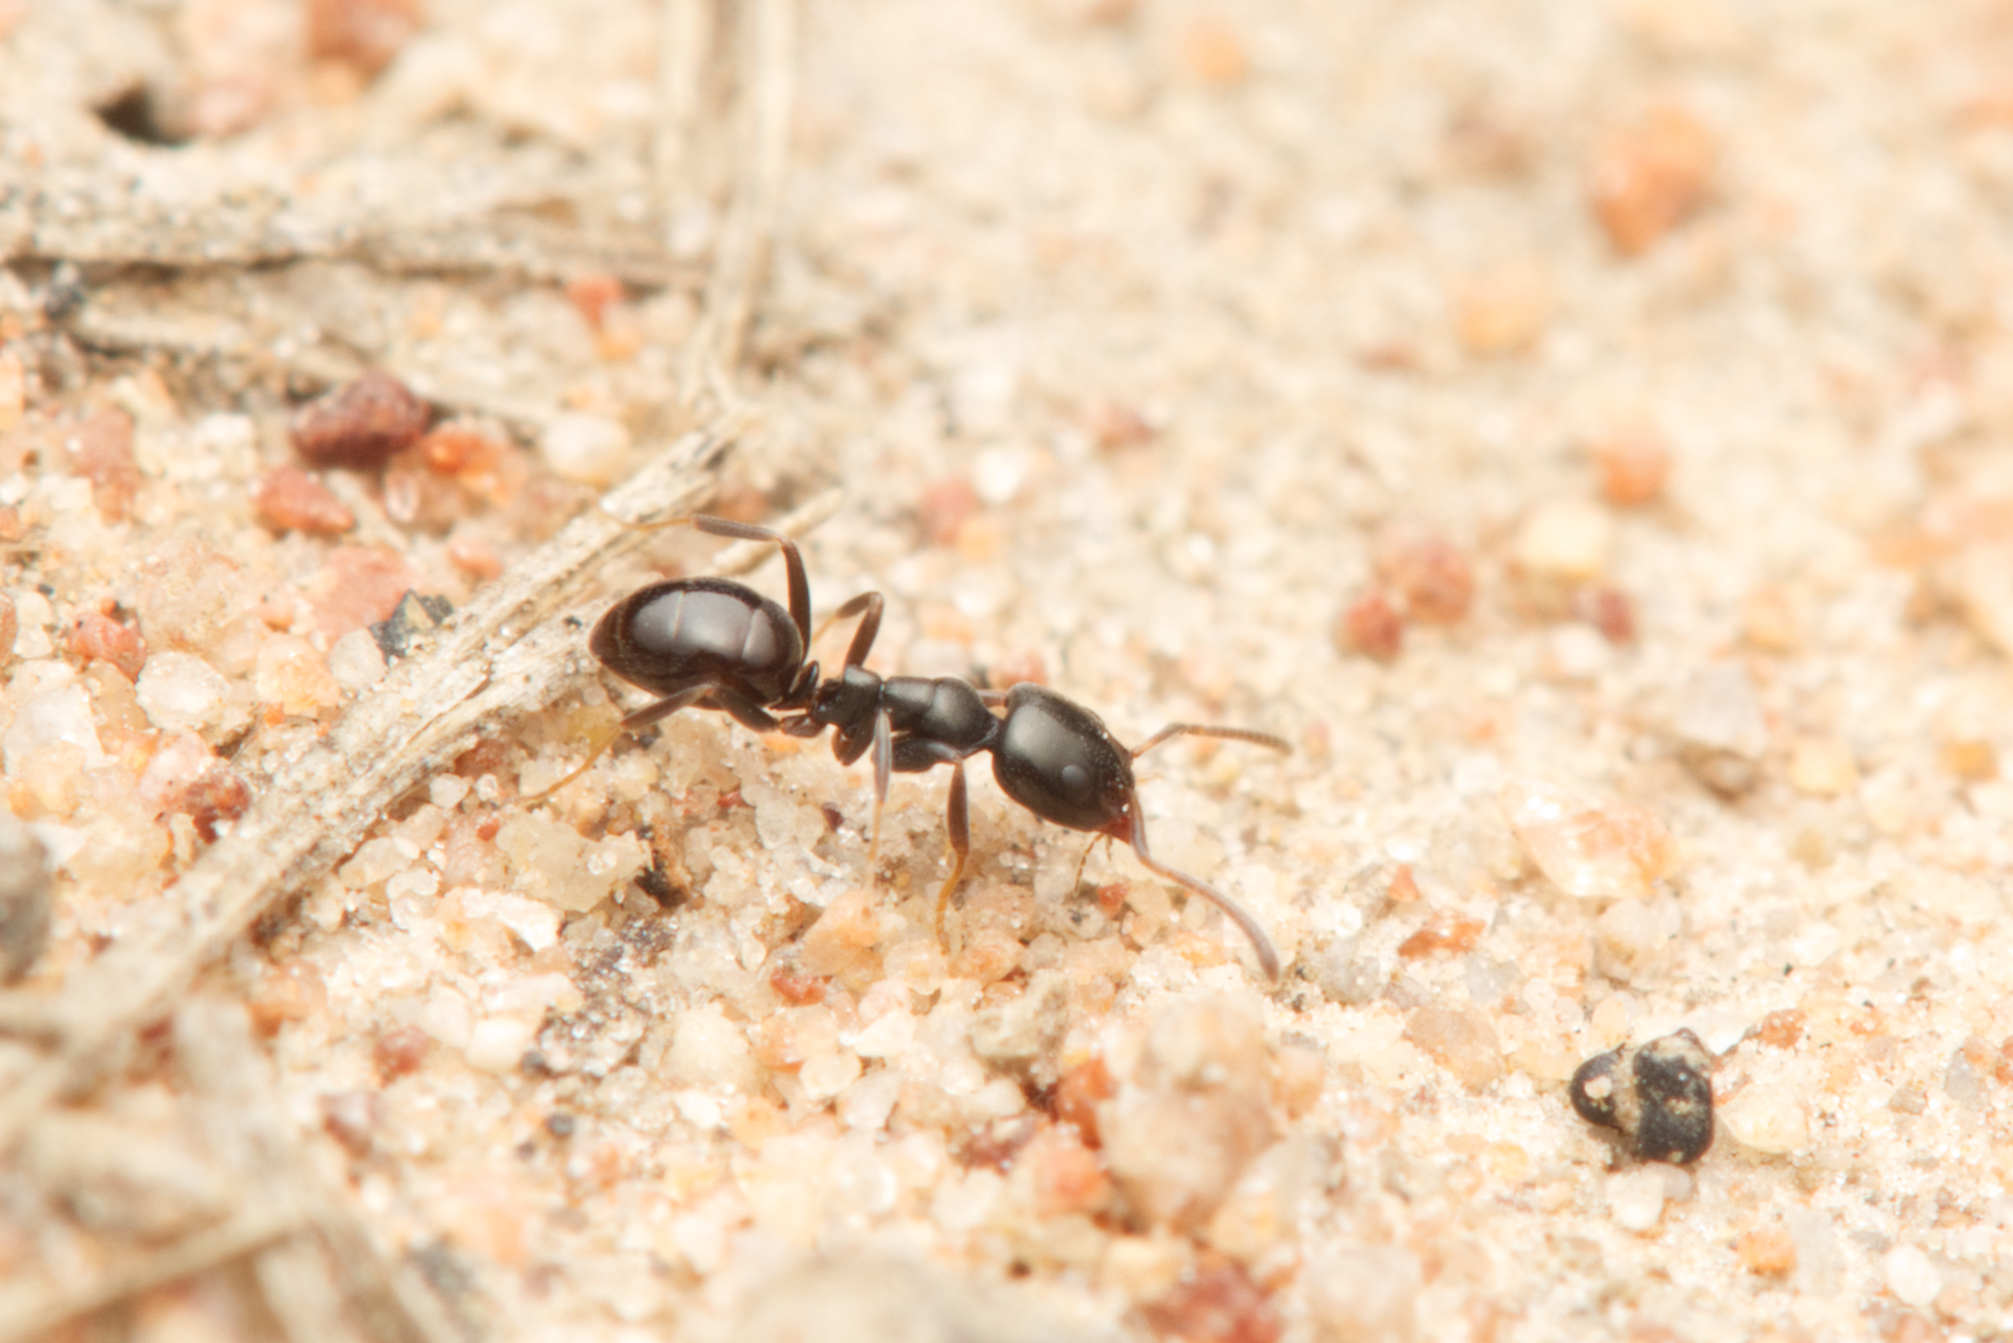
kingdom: Animalia
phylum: Arthropoda
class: Insecta
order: Hymenoptera
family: Formicidae
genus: Ochetellus
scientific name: Ochetellus glaber
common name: Ant
